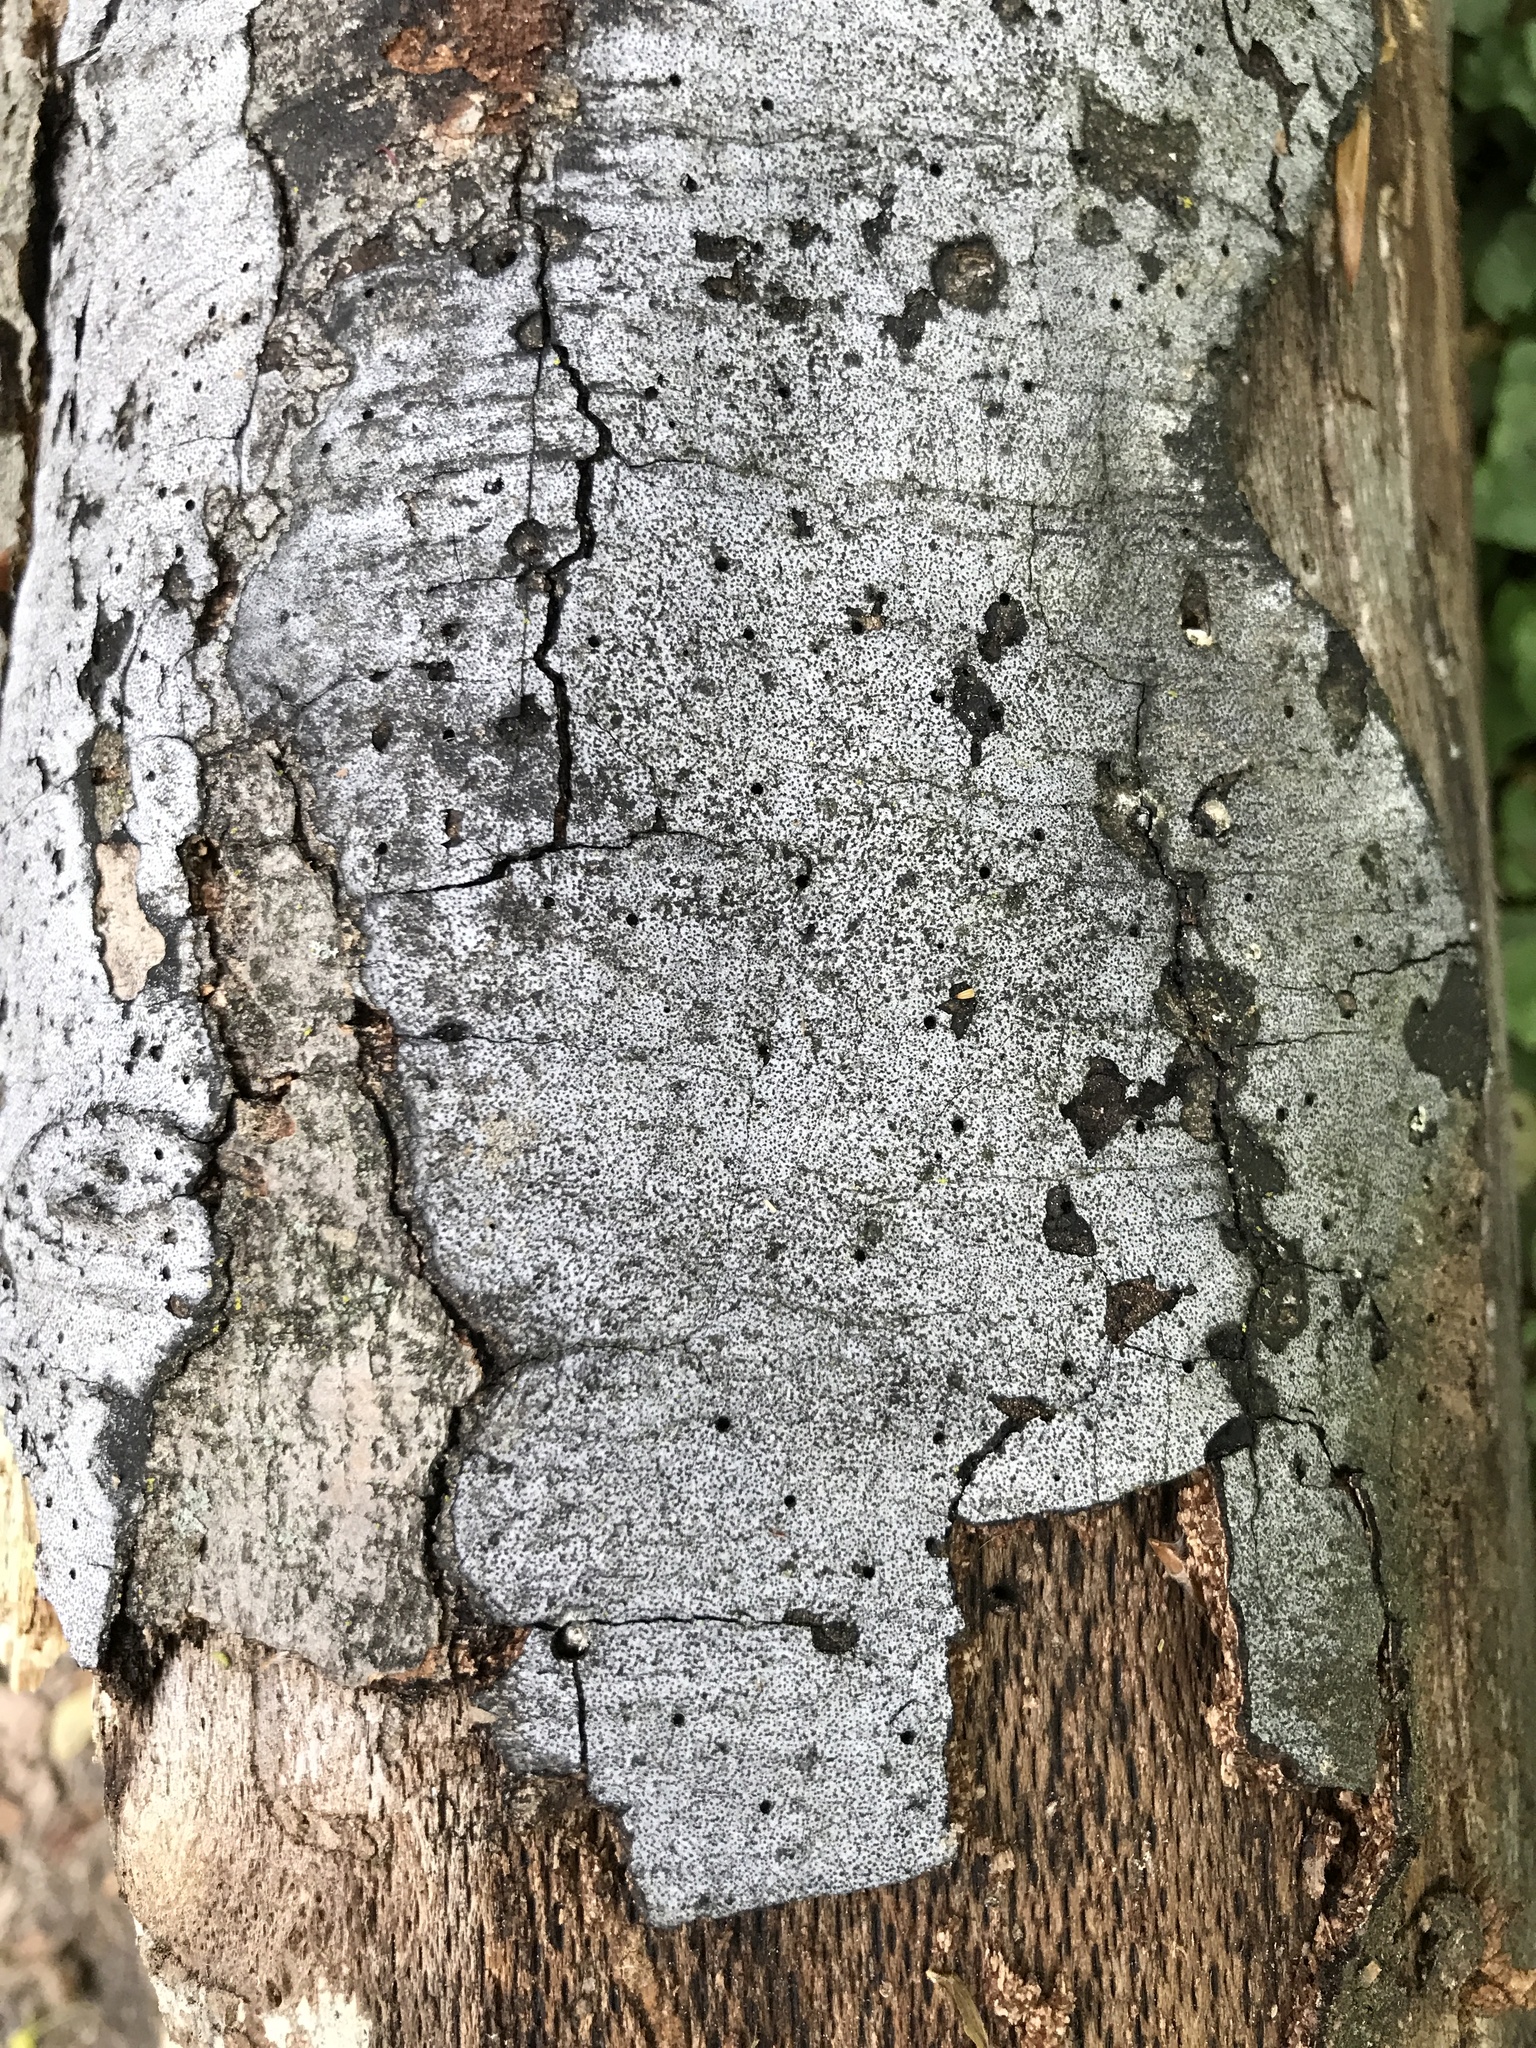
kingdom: Fungi
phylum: Ascomycota
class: Sordariomycetes
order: Xylariales
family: Graphostromataceae
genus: Biscogniauxia
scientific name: Biscogniauxia atropunctata
